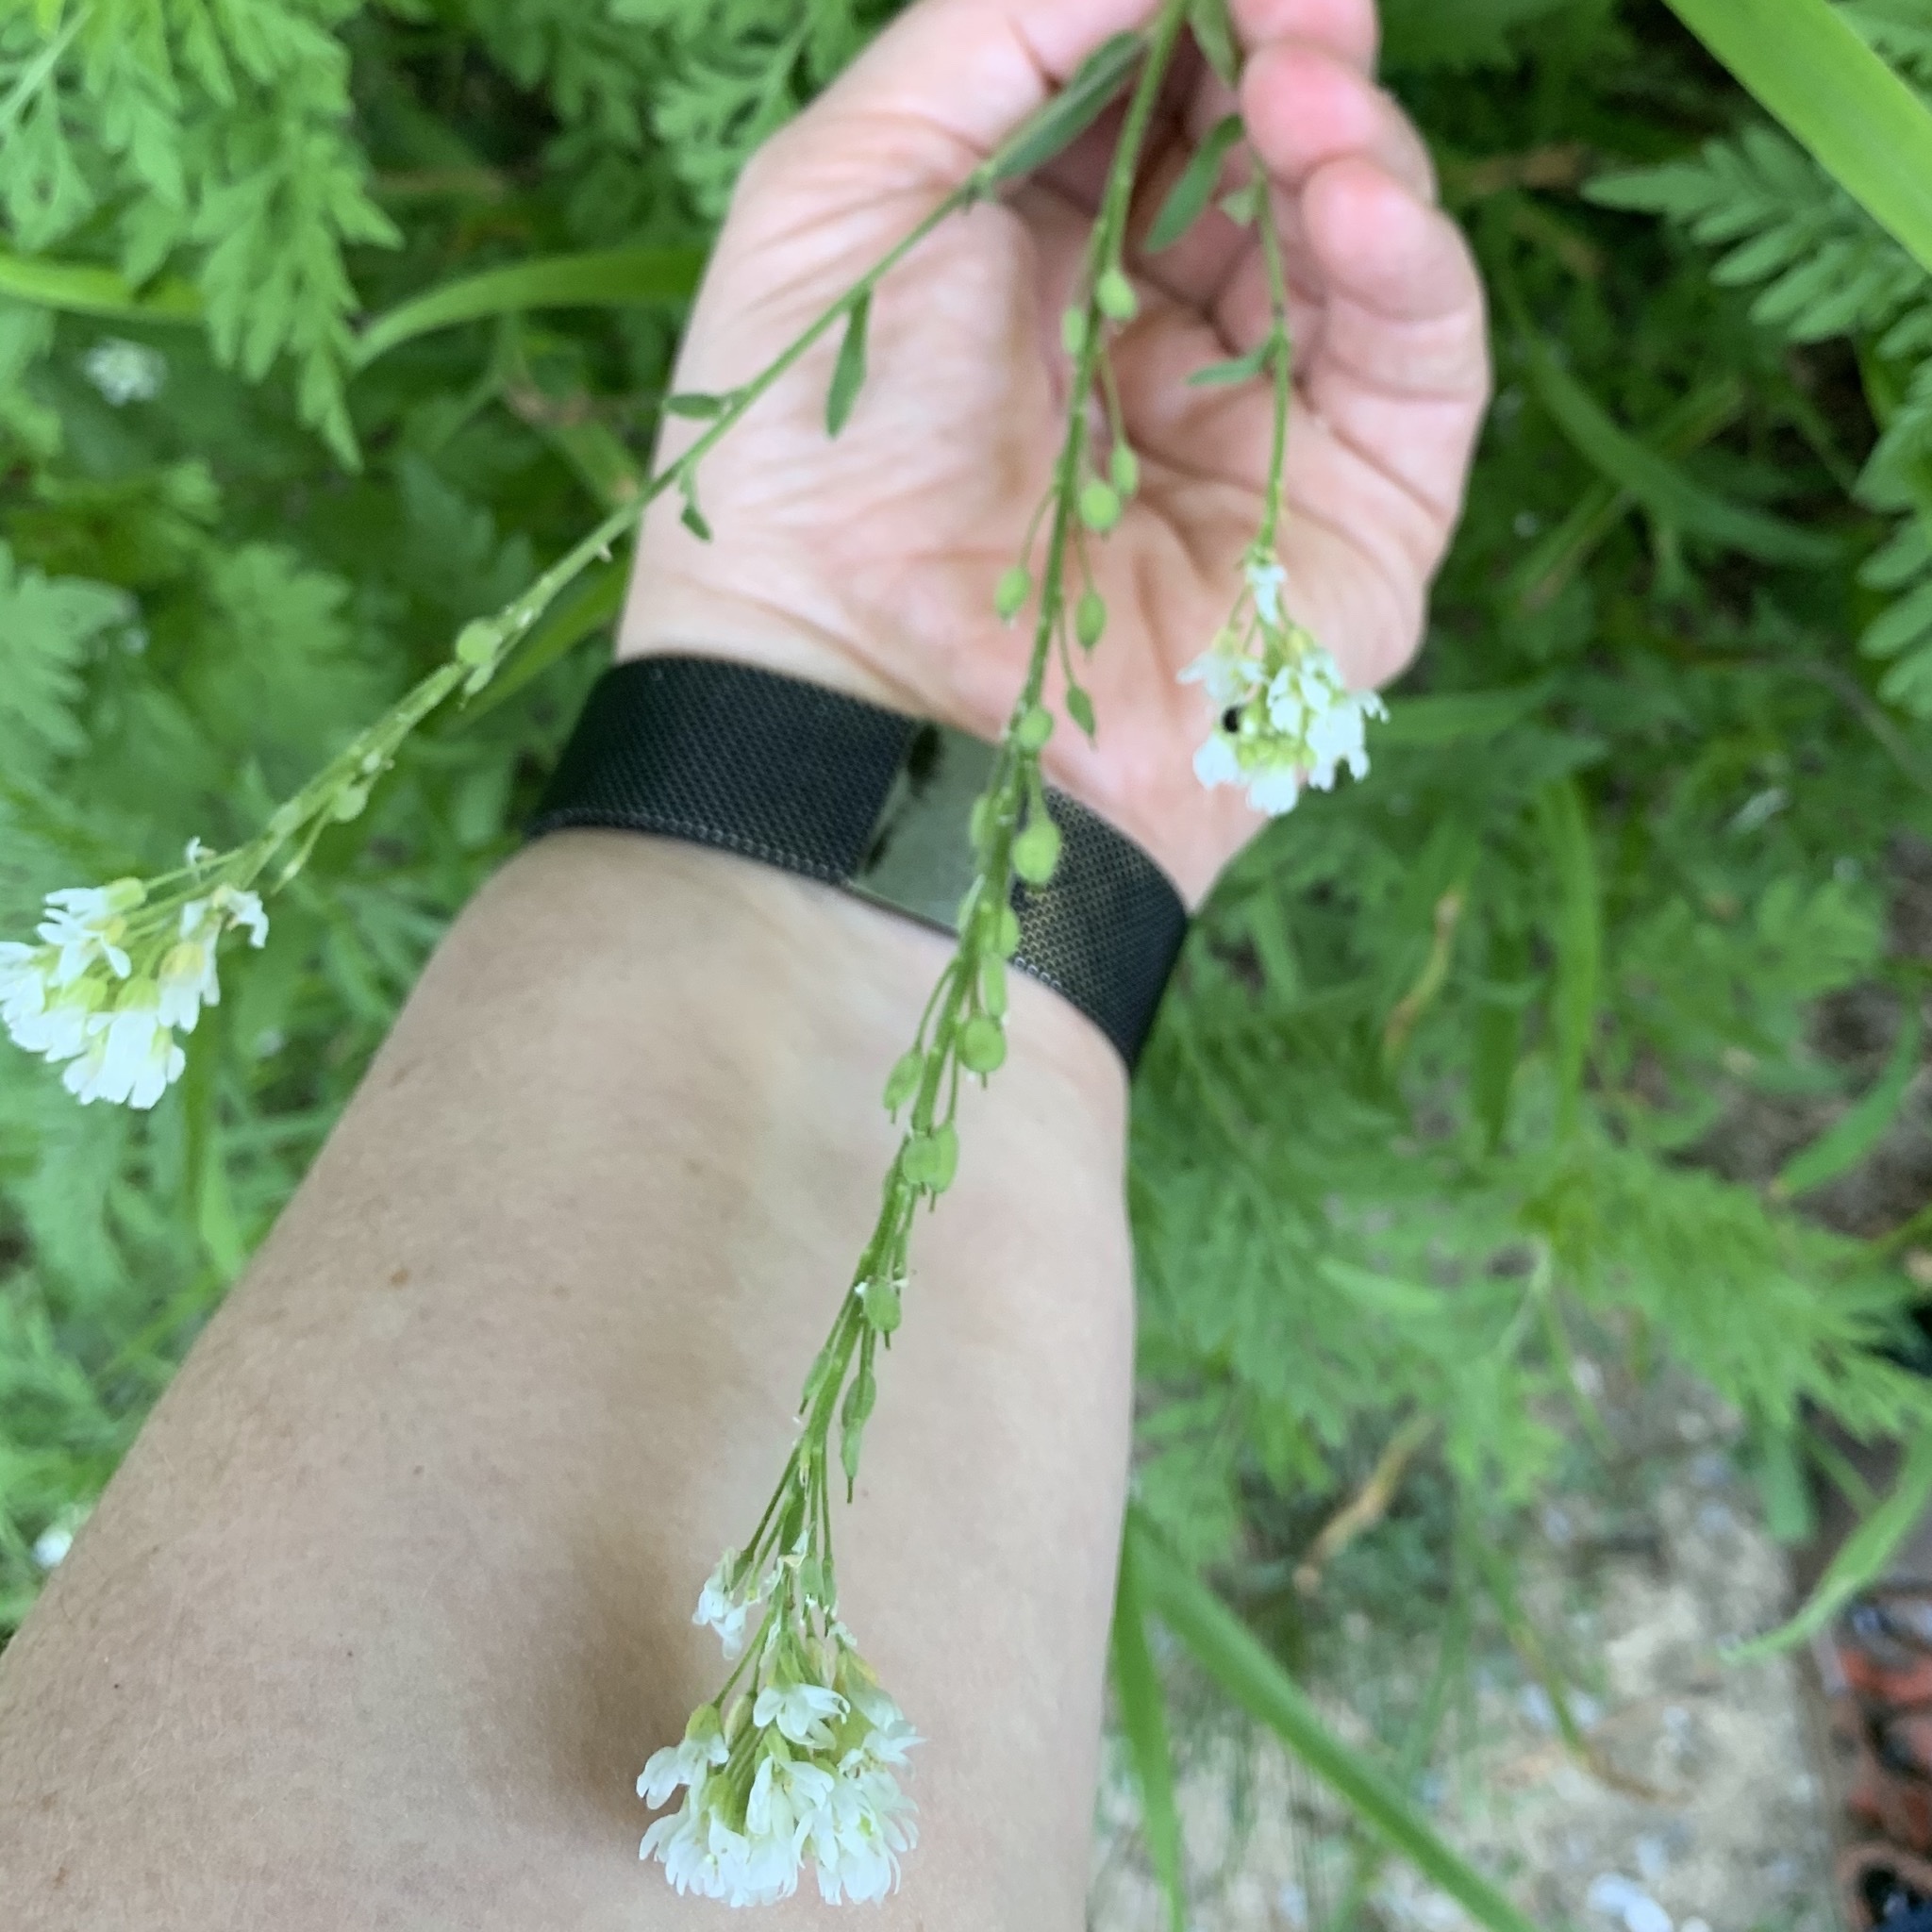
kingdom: Plantae
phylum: Tracheophyta
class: Magnoliopsida
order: Brassicales
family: Brassicaceae
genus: Berteroa
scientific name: Berteroa incana
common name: Hoary alison
